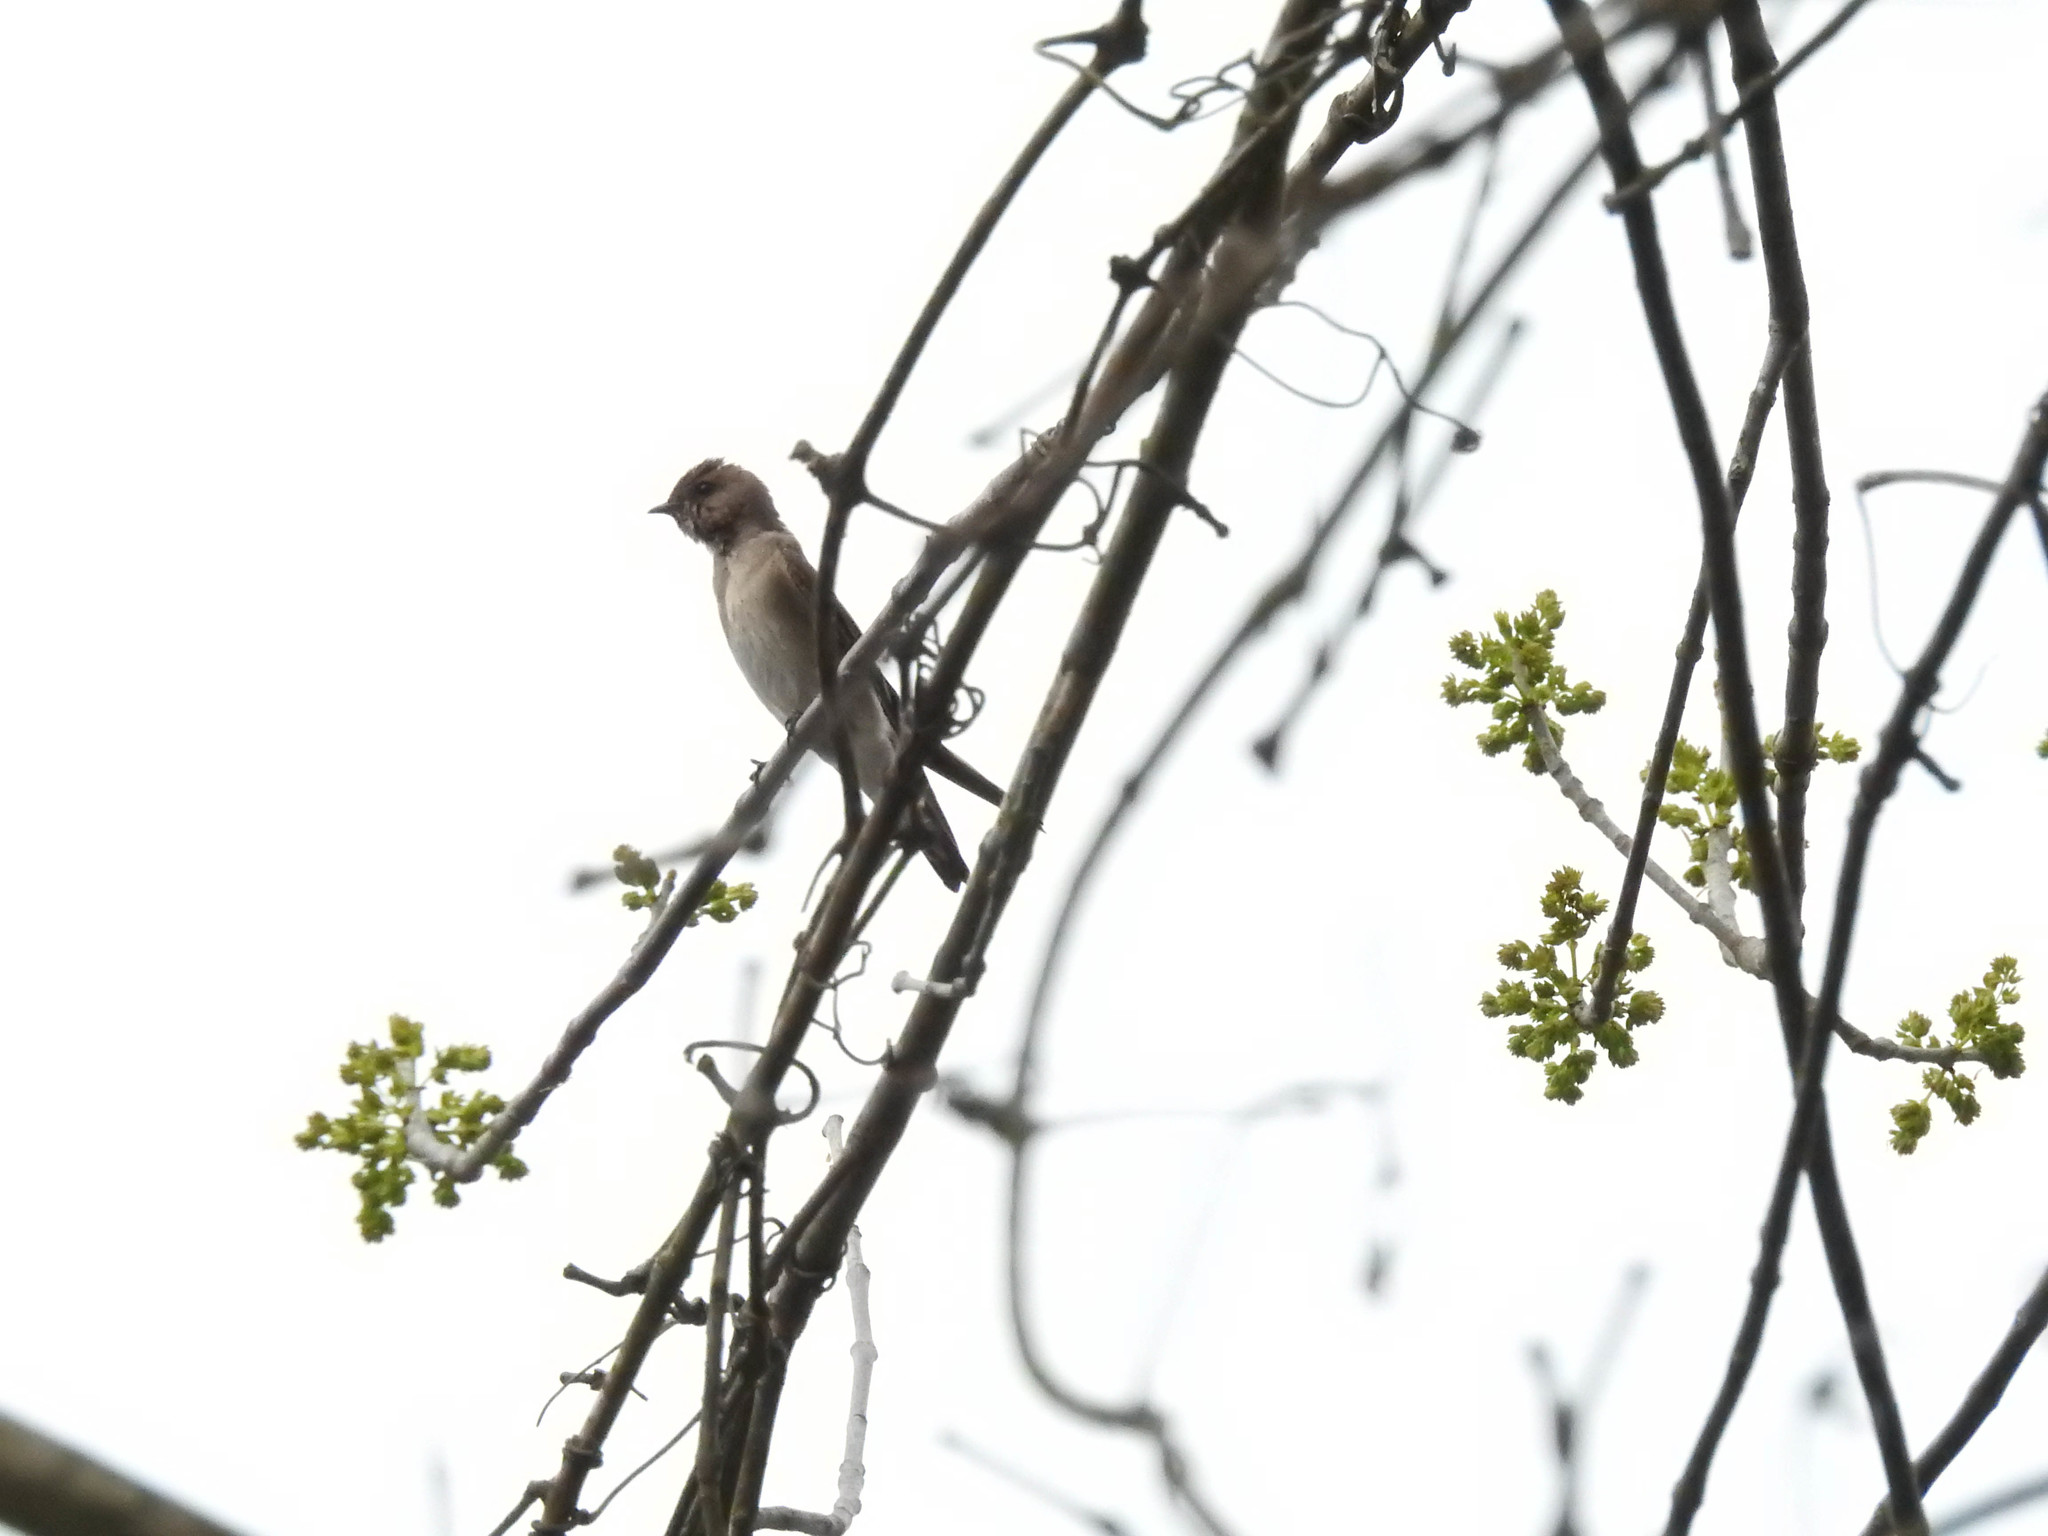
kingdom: Animalia
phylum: Chordata
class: Aves
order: Passeriformes
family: Hirundinidae
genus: Stelgidopteryx
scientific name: Stelgidopteryx serripennis
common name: Northern rough-winged swallow
